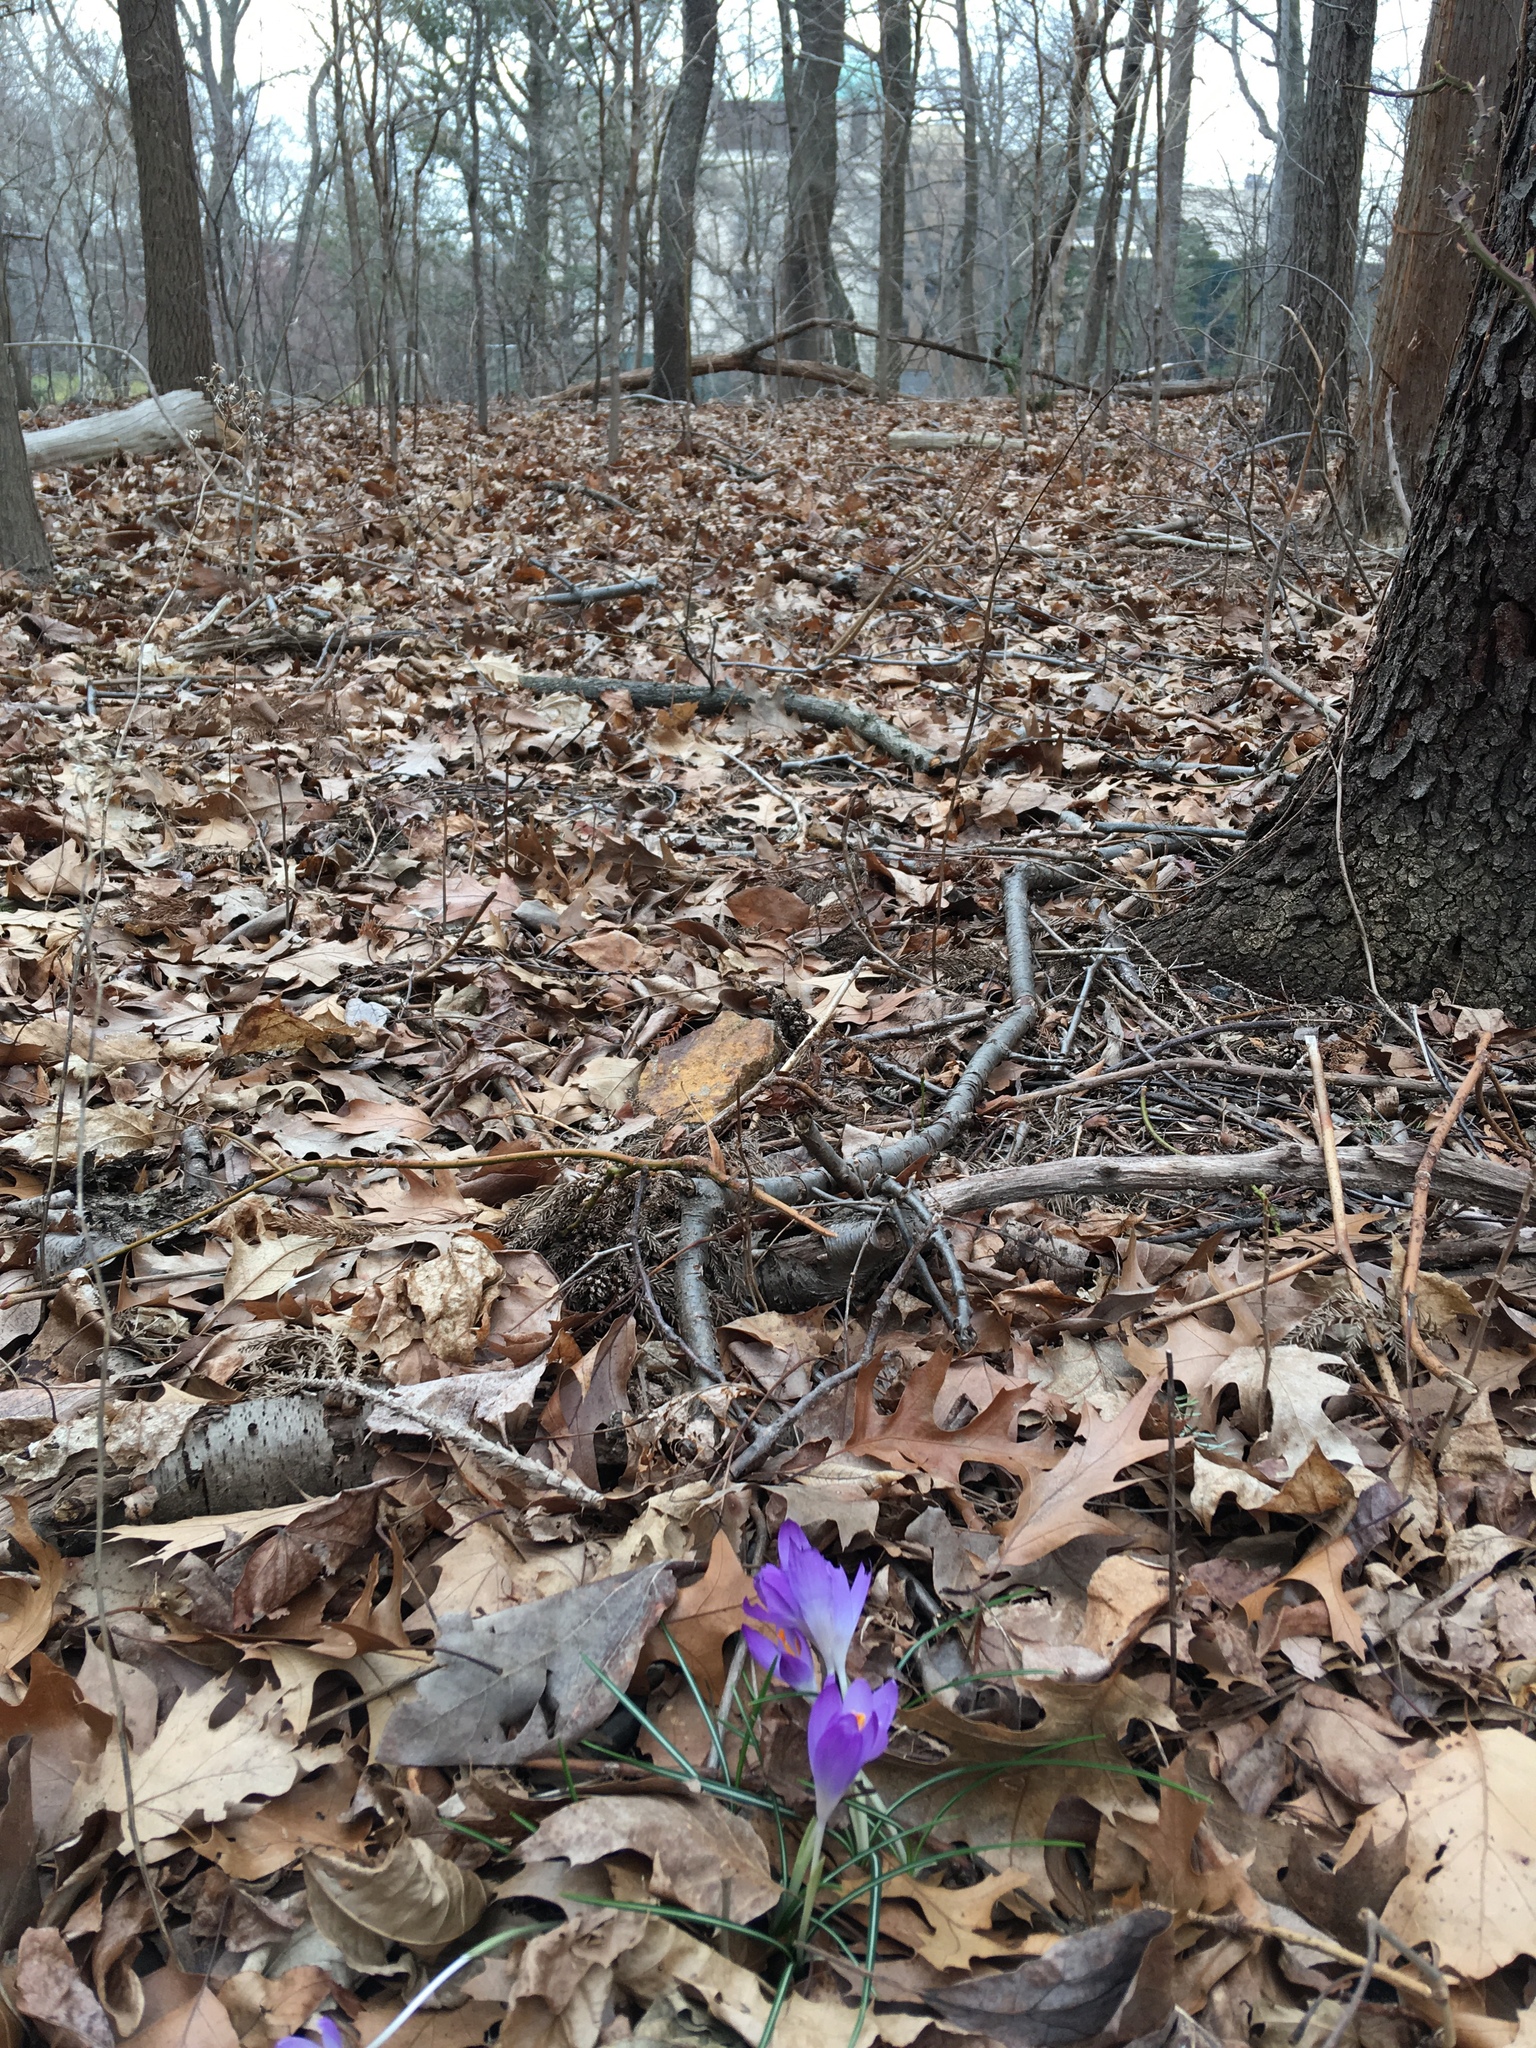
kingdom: Plantae
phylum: Tracheophyta
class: Liliopsida
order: Asparagales
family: Iridaceae
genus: Crocus
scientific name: Crocus tommasinianus
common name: Early crocus
